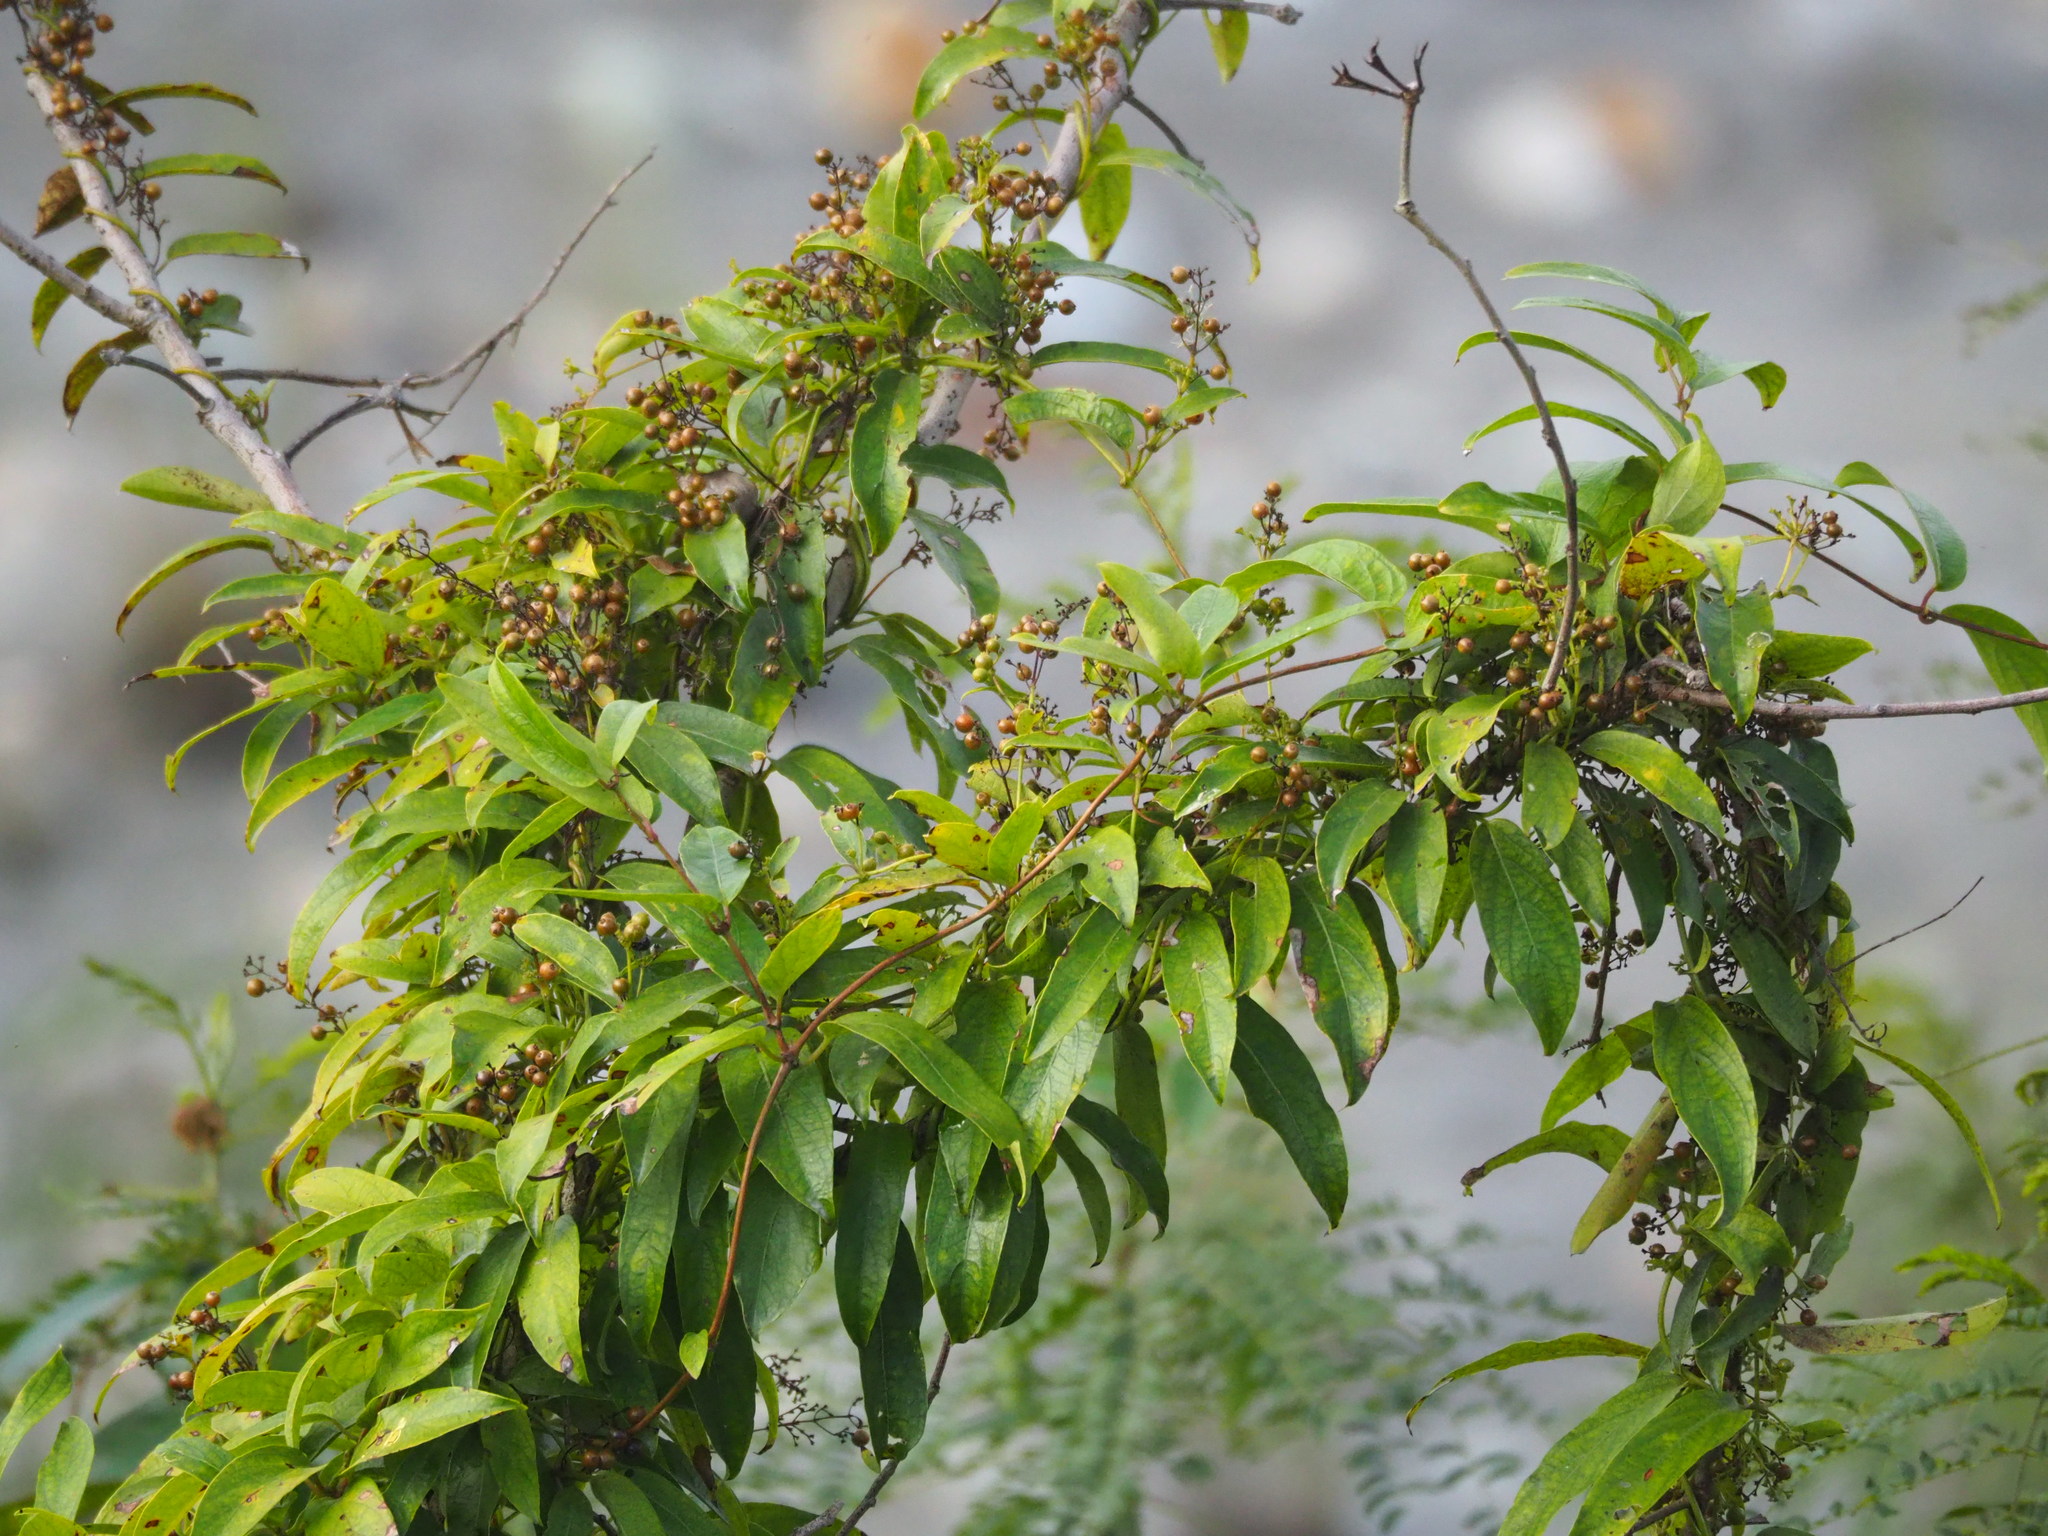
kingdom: Plantae
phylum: Tracheophyta
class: Magnoliopsida
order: Gentianales
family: Rubiaceae
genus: Paederia
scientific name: Paederia foetida
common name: Stinkvine
